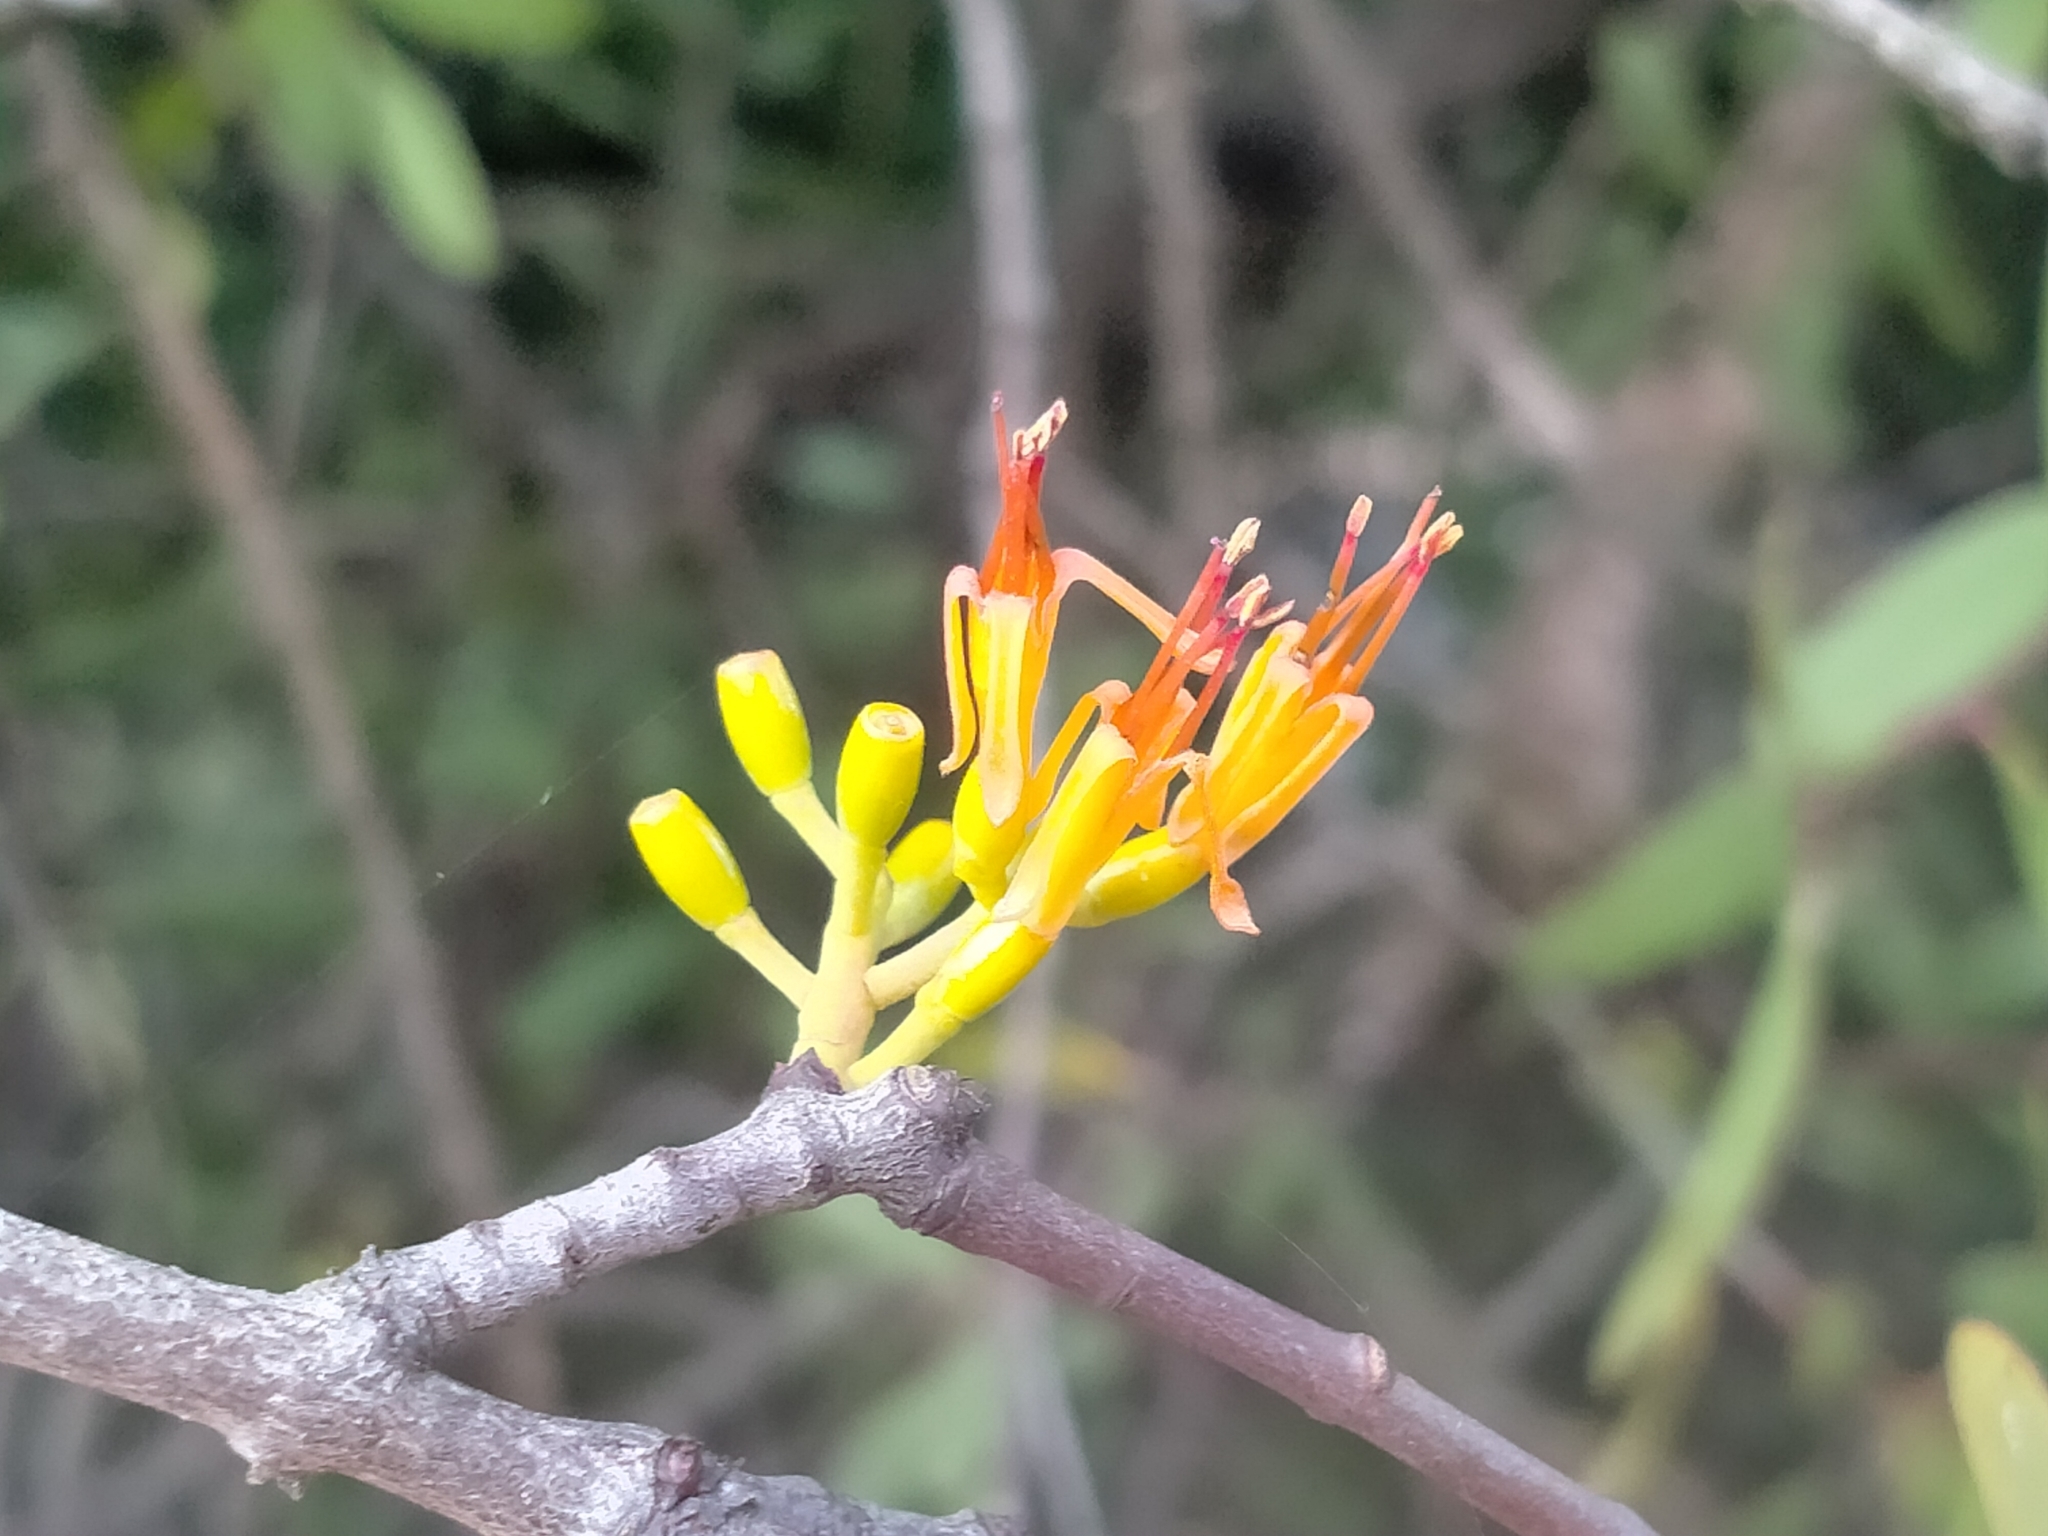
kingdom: Plantae
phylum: Tracheophyta
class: Magnoliopsida
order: Santalales
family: Loranthaceae
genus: Alepis
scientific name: Alepis flavida
